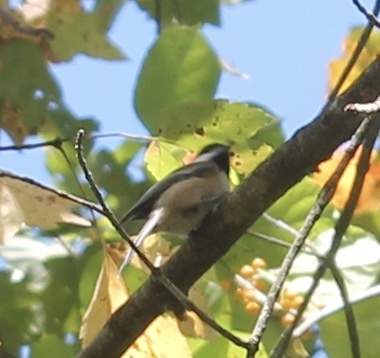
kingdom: Animalia
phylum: Chordata
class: Aves
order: Passeriformes
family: Paridae
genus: Poecile
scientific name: Poecile atricapillus
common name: Black-capped chickadee
